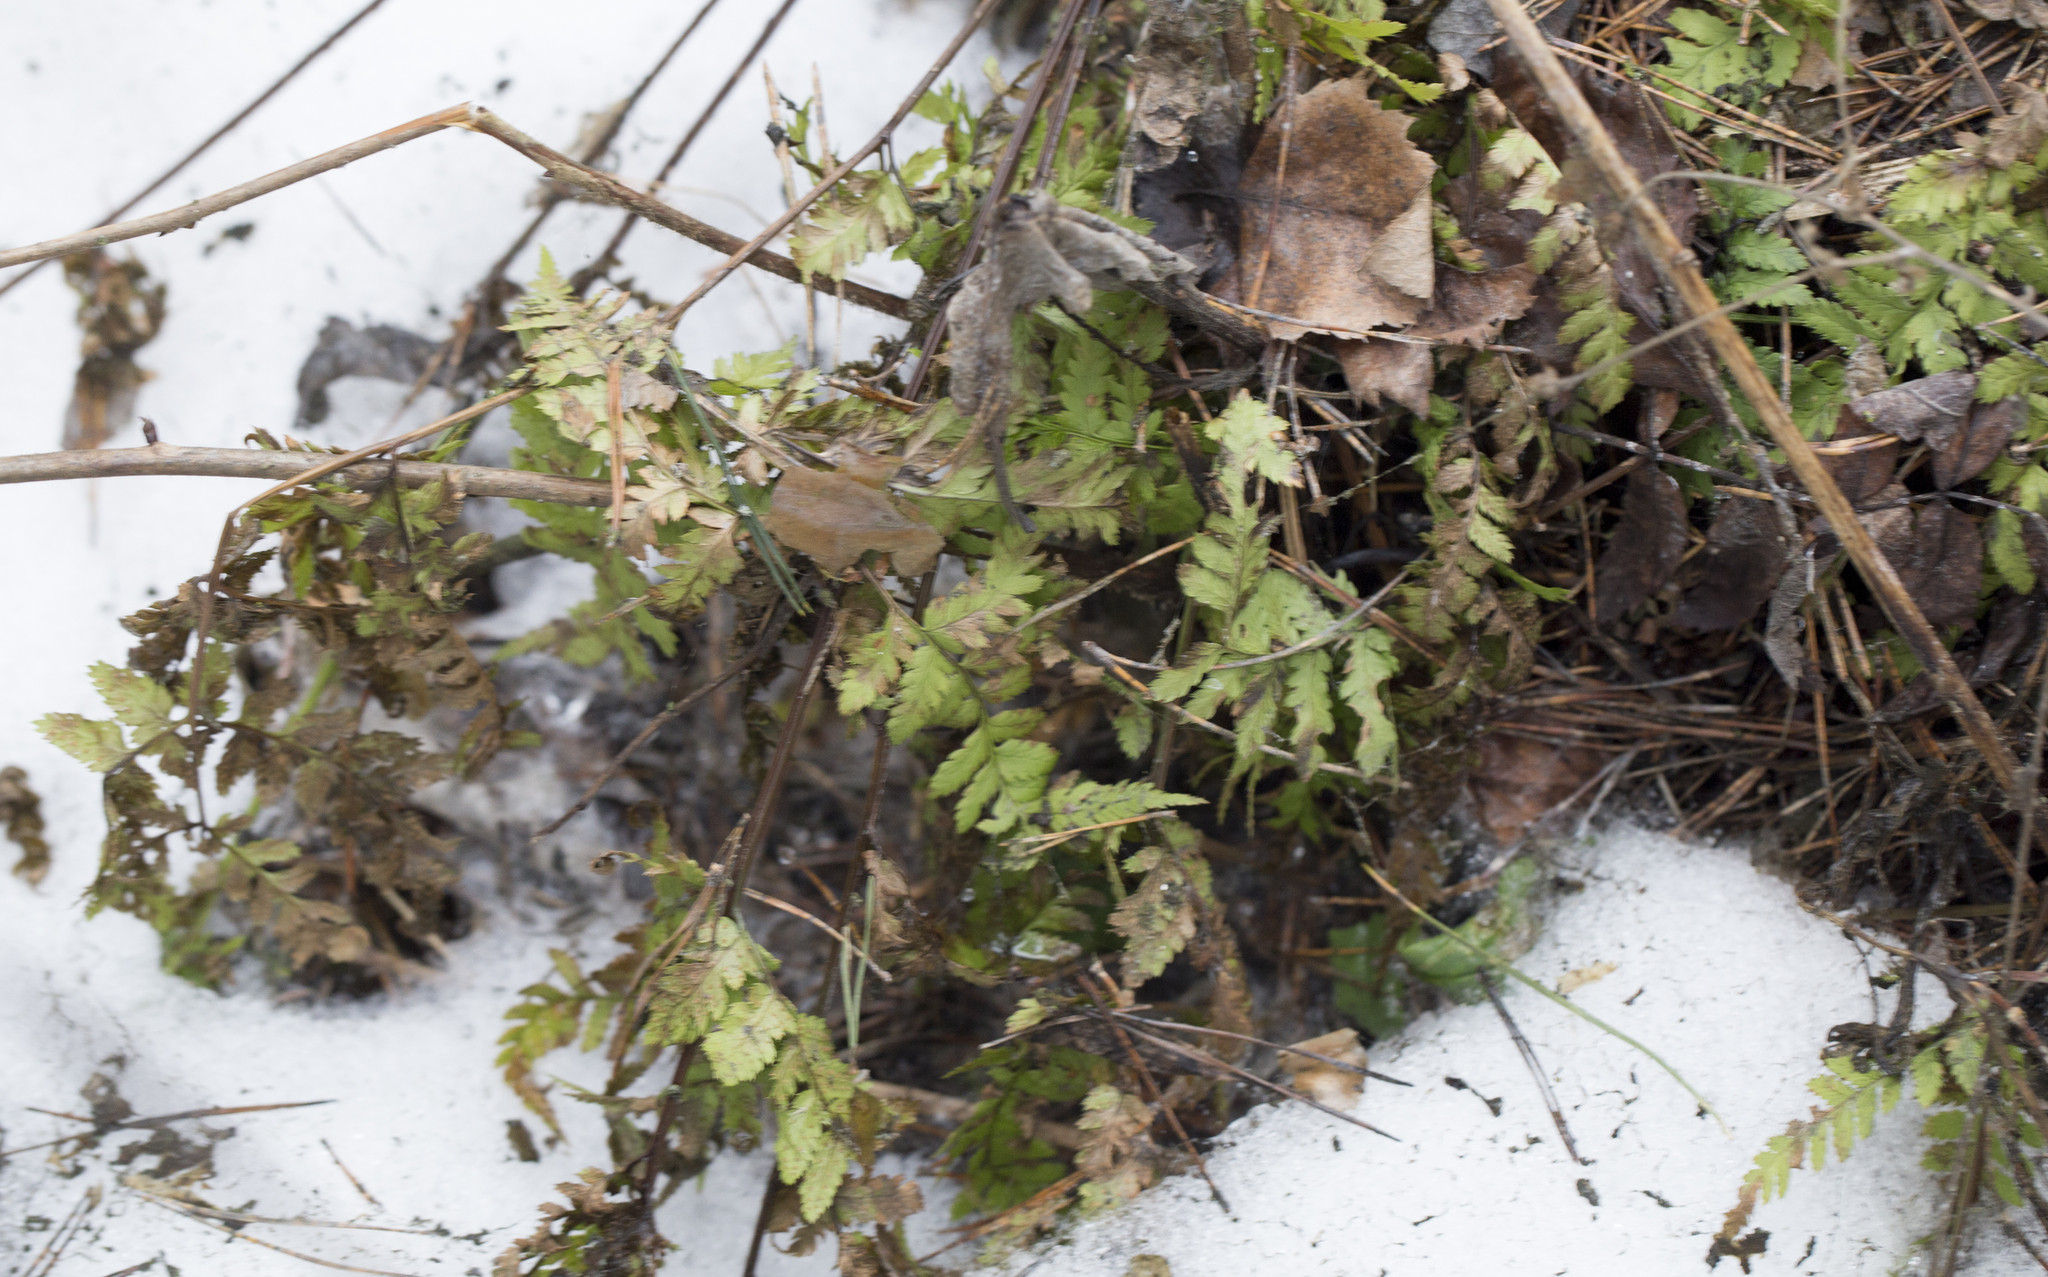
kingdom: Plantae
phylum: Tracheophyta
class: Polypodiopsida
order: Polypodiales
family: Dryopteridaceae
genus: Dryopteris
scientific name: Dryopteris carthusiana
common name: Narrow buckler-fern
